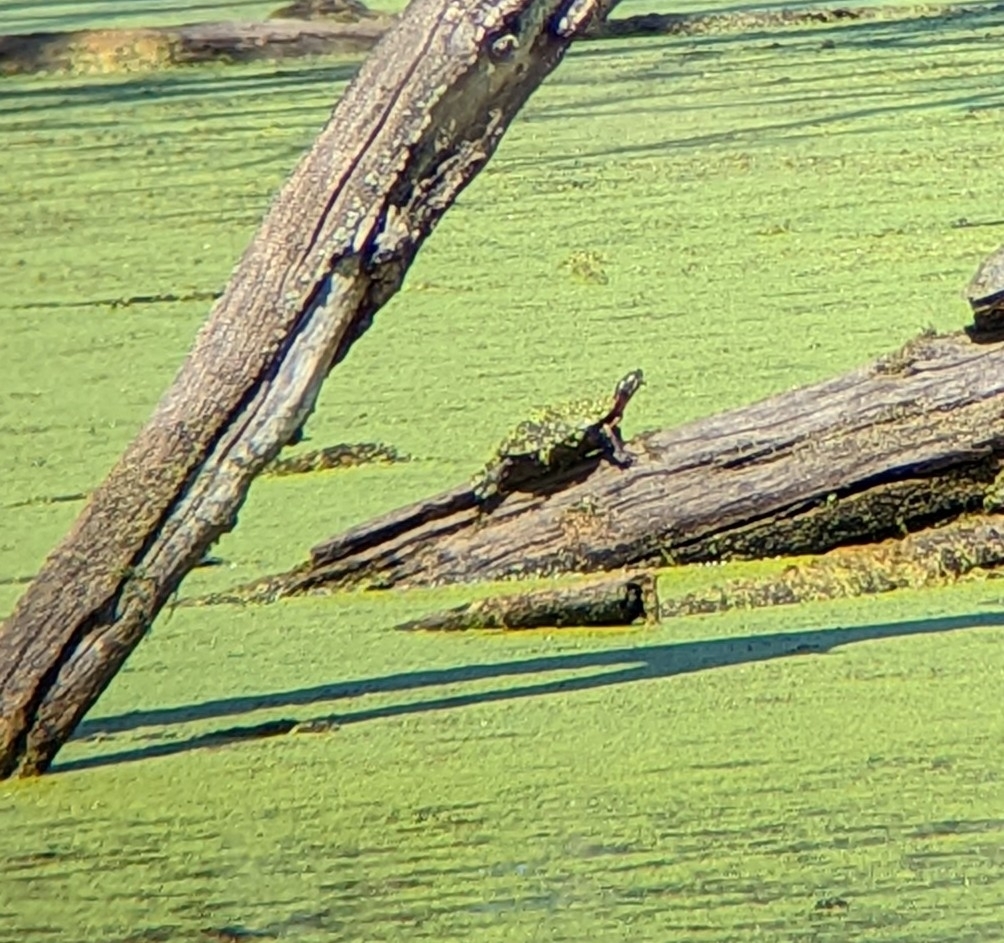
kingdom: Animalia
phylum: Chordata
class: Testudines
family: Emydidae
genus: Chrysemys
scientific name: Chrysemys picta
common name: Painted turtle
